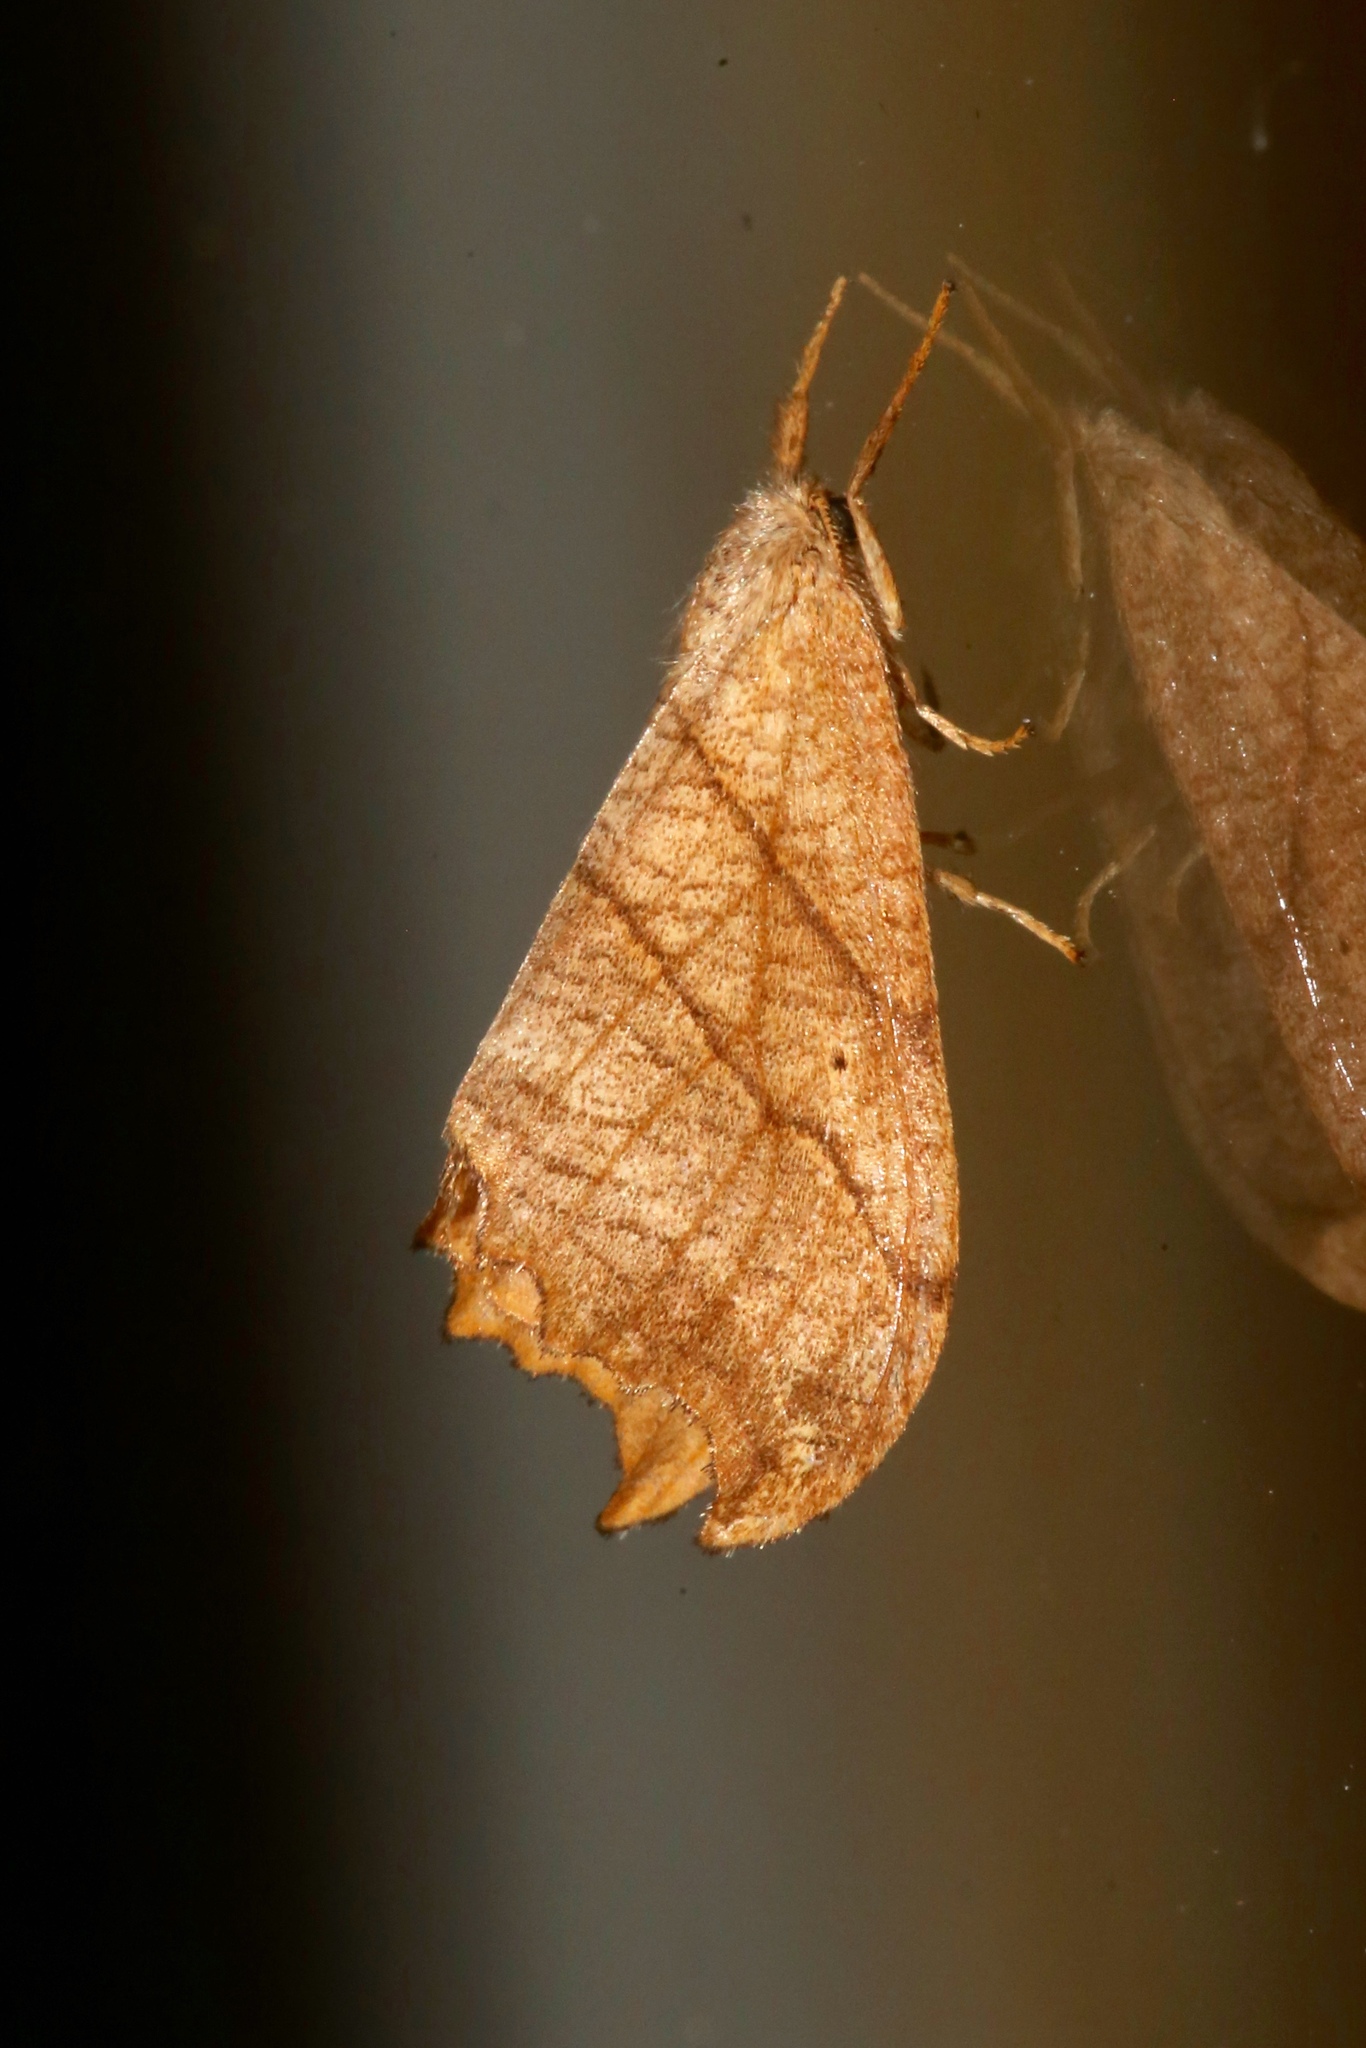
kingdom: Animalia
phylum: Arthropoda
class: Insecta
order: Lepidoptera
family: Drepanidae
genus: Falcaria
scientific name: Falcaria bilineata
